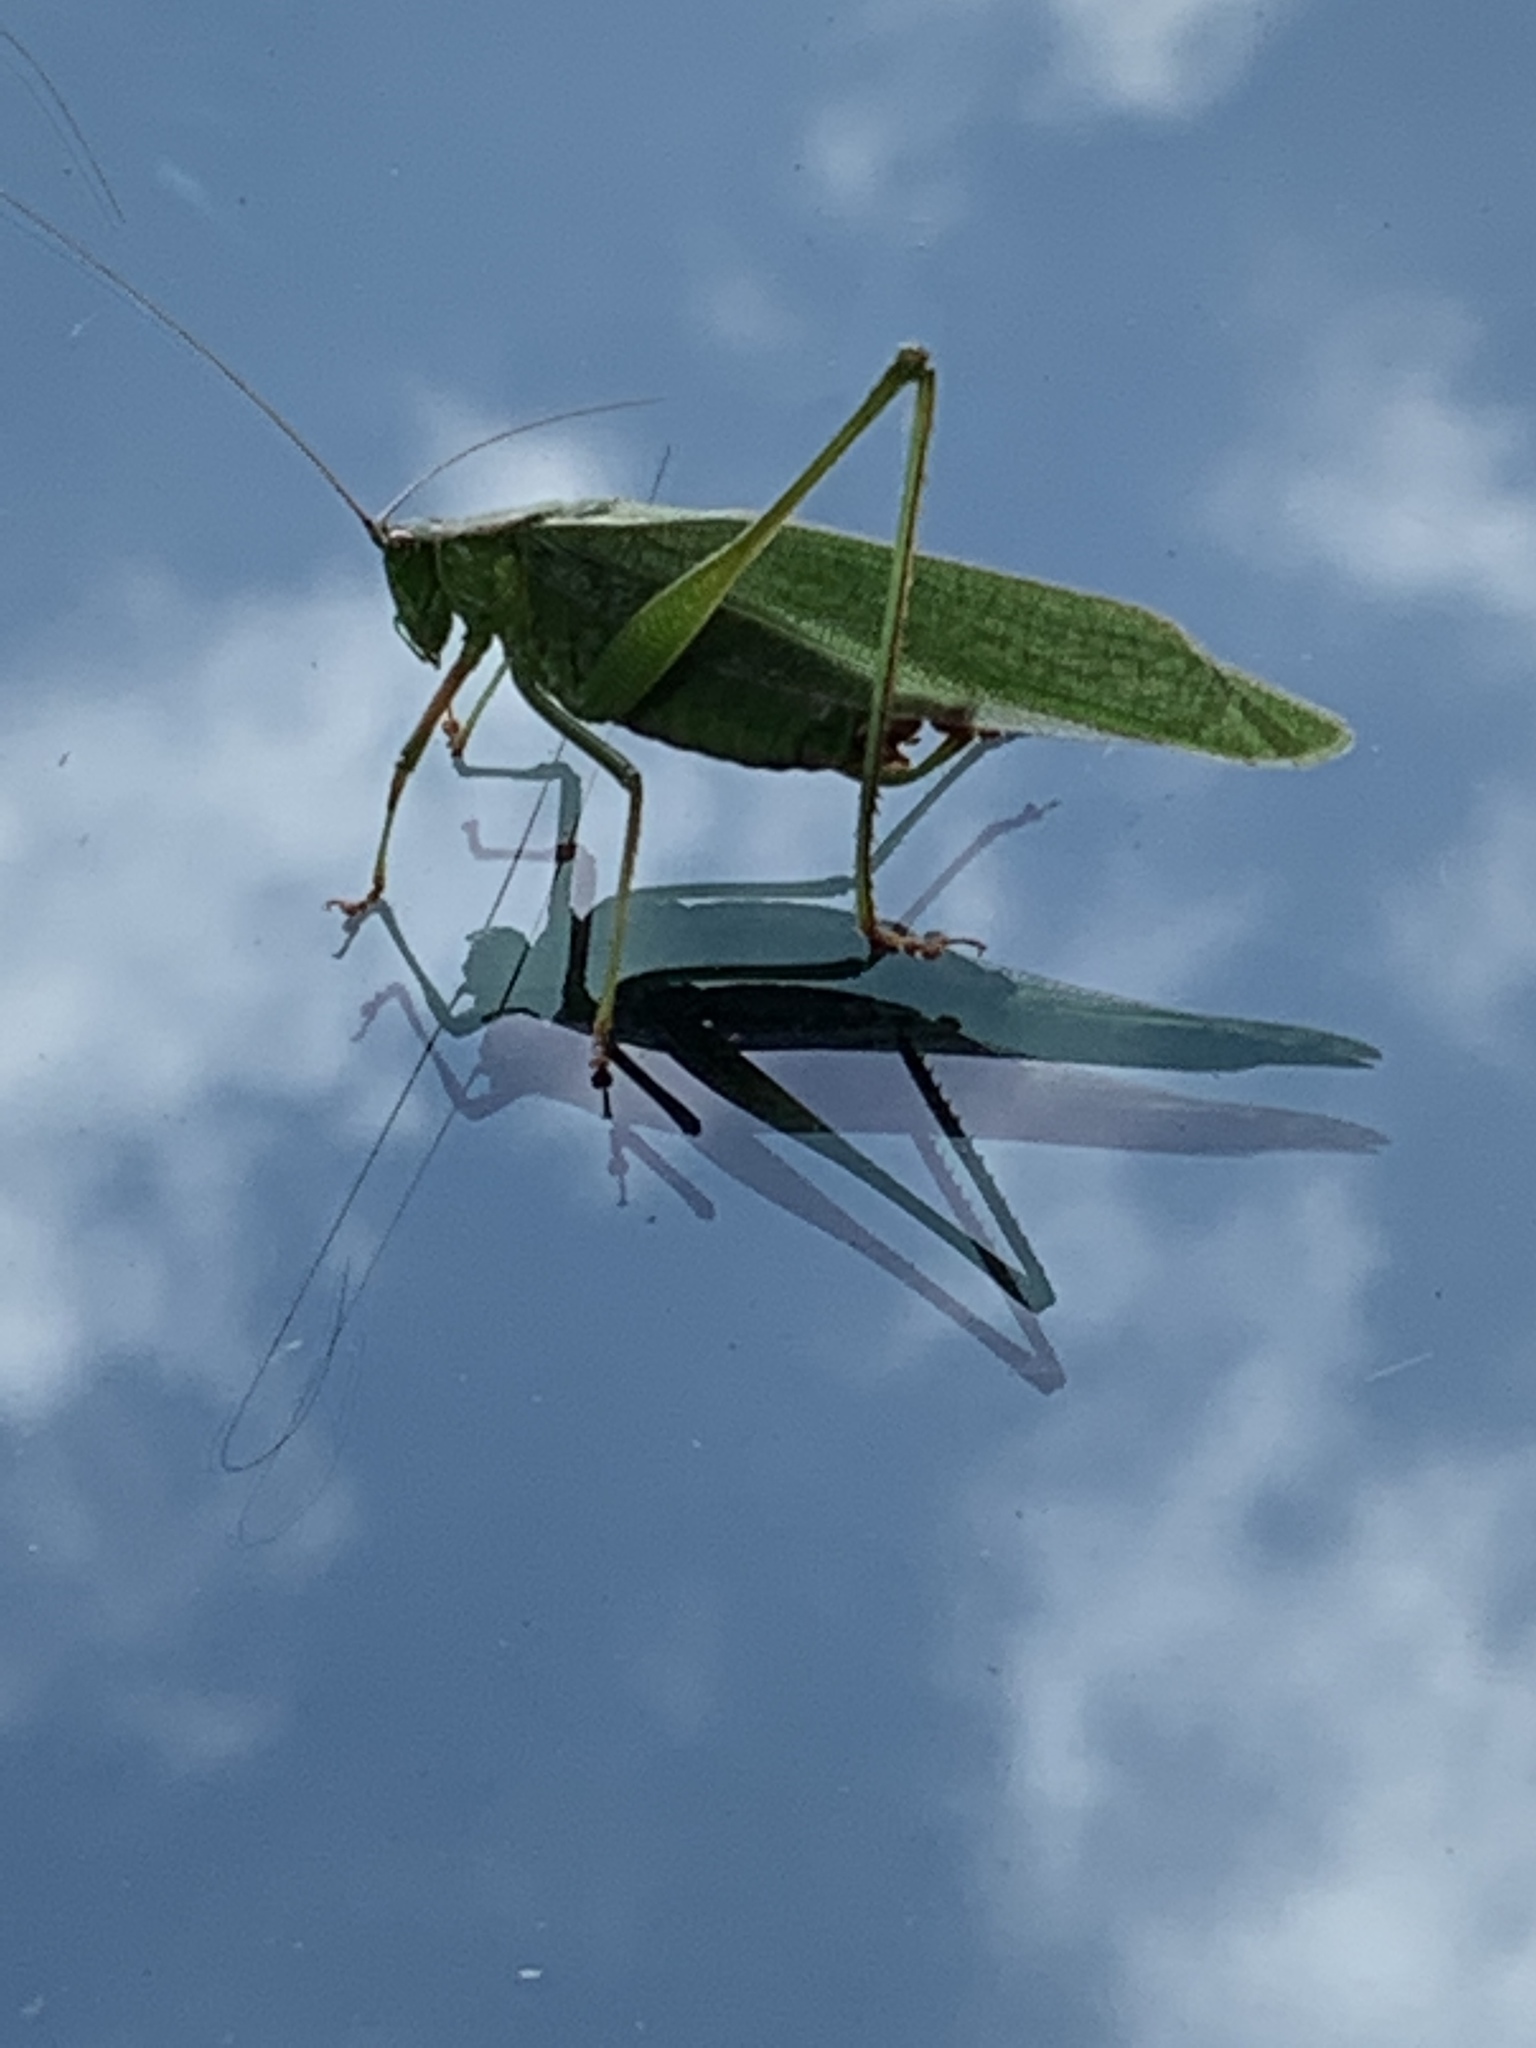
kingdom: Animalia
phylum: Arthropoda
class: Insecta
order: Orthoptera
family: Tettigoniidae
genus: Scudderia
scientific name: Scudderia furcata
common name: Fork-tailed bush katydid
